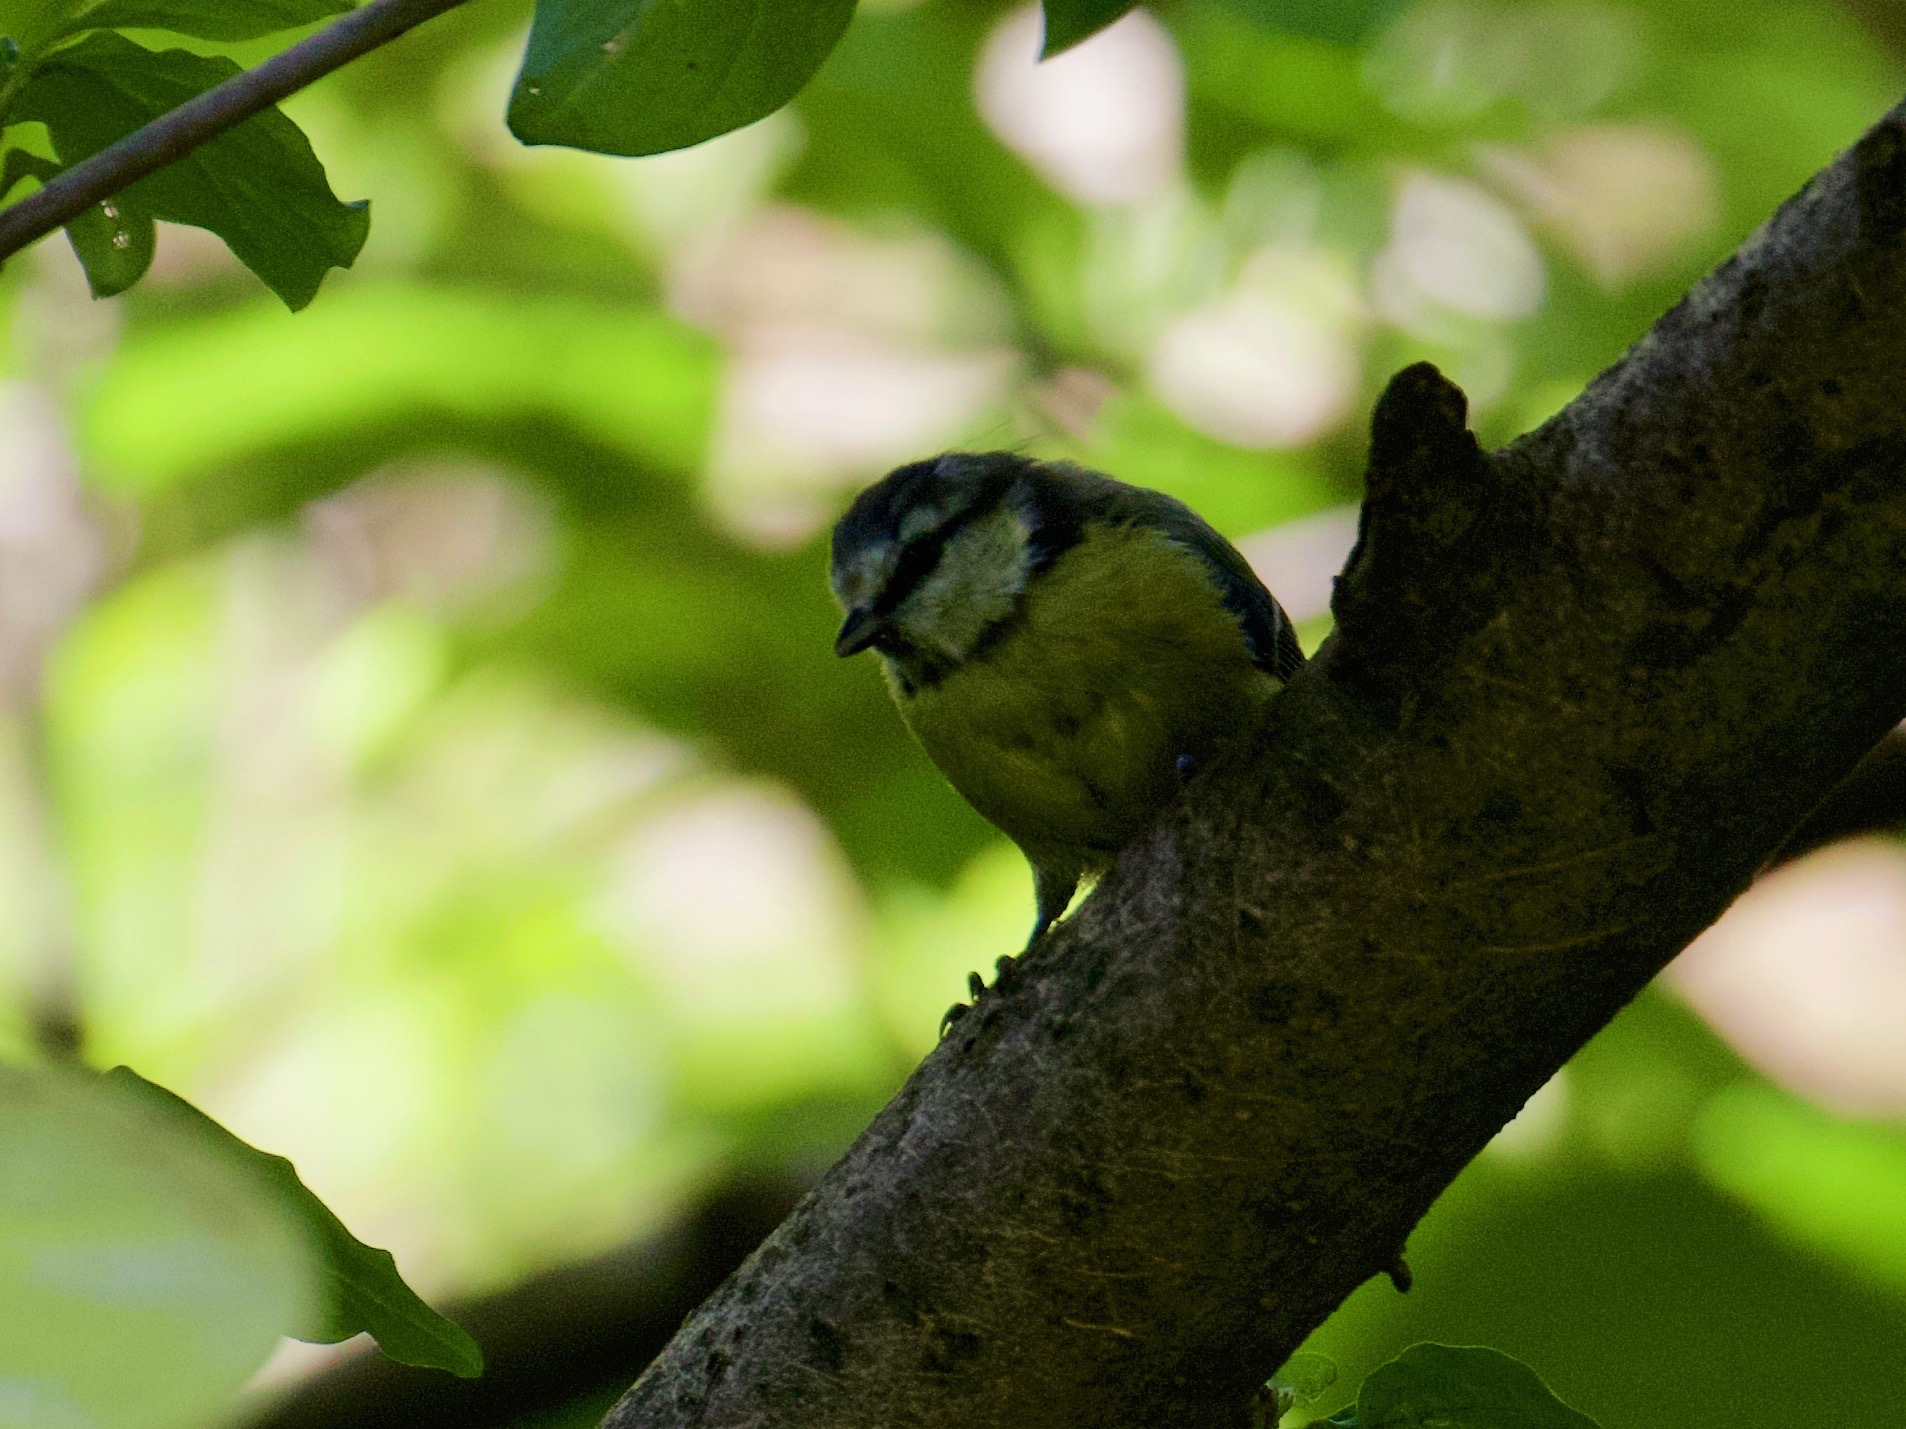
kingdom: Animalia
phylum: Chordata
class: Aves
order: Passeriformes
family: Paridae
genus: Cyanistes
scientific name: Cyanistes caeruleus
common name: Eurasian blue tit
